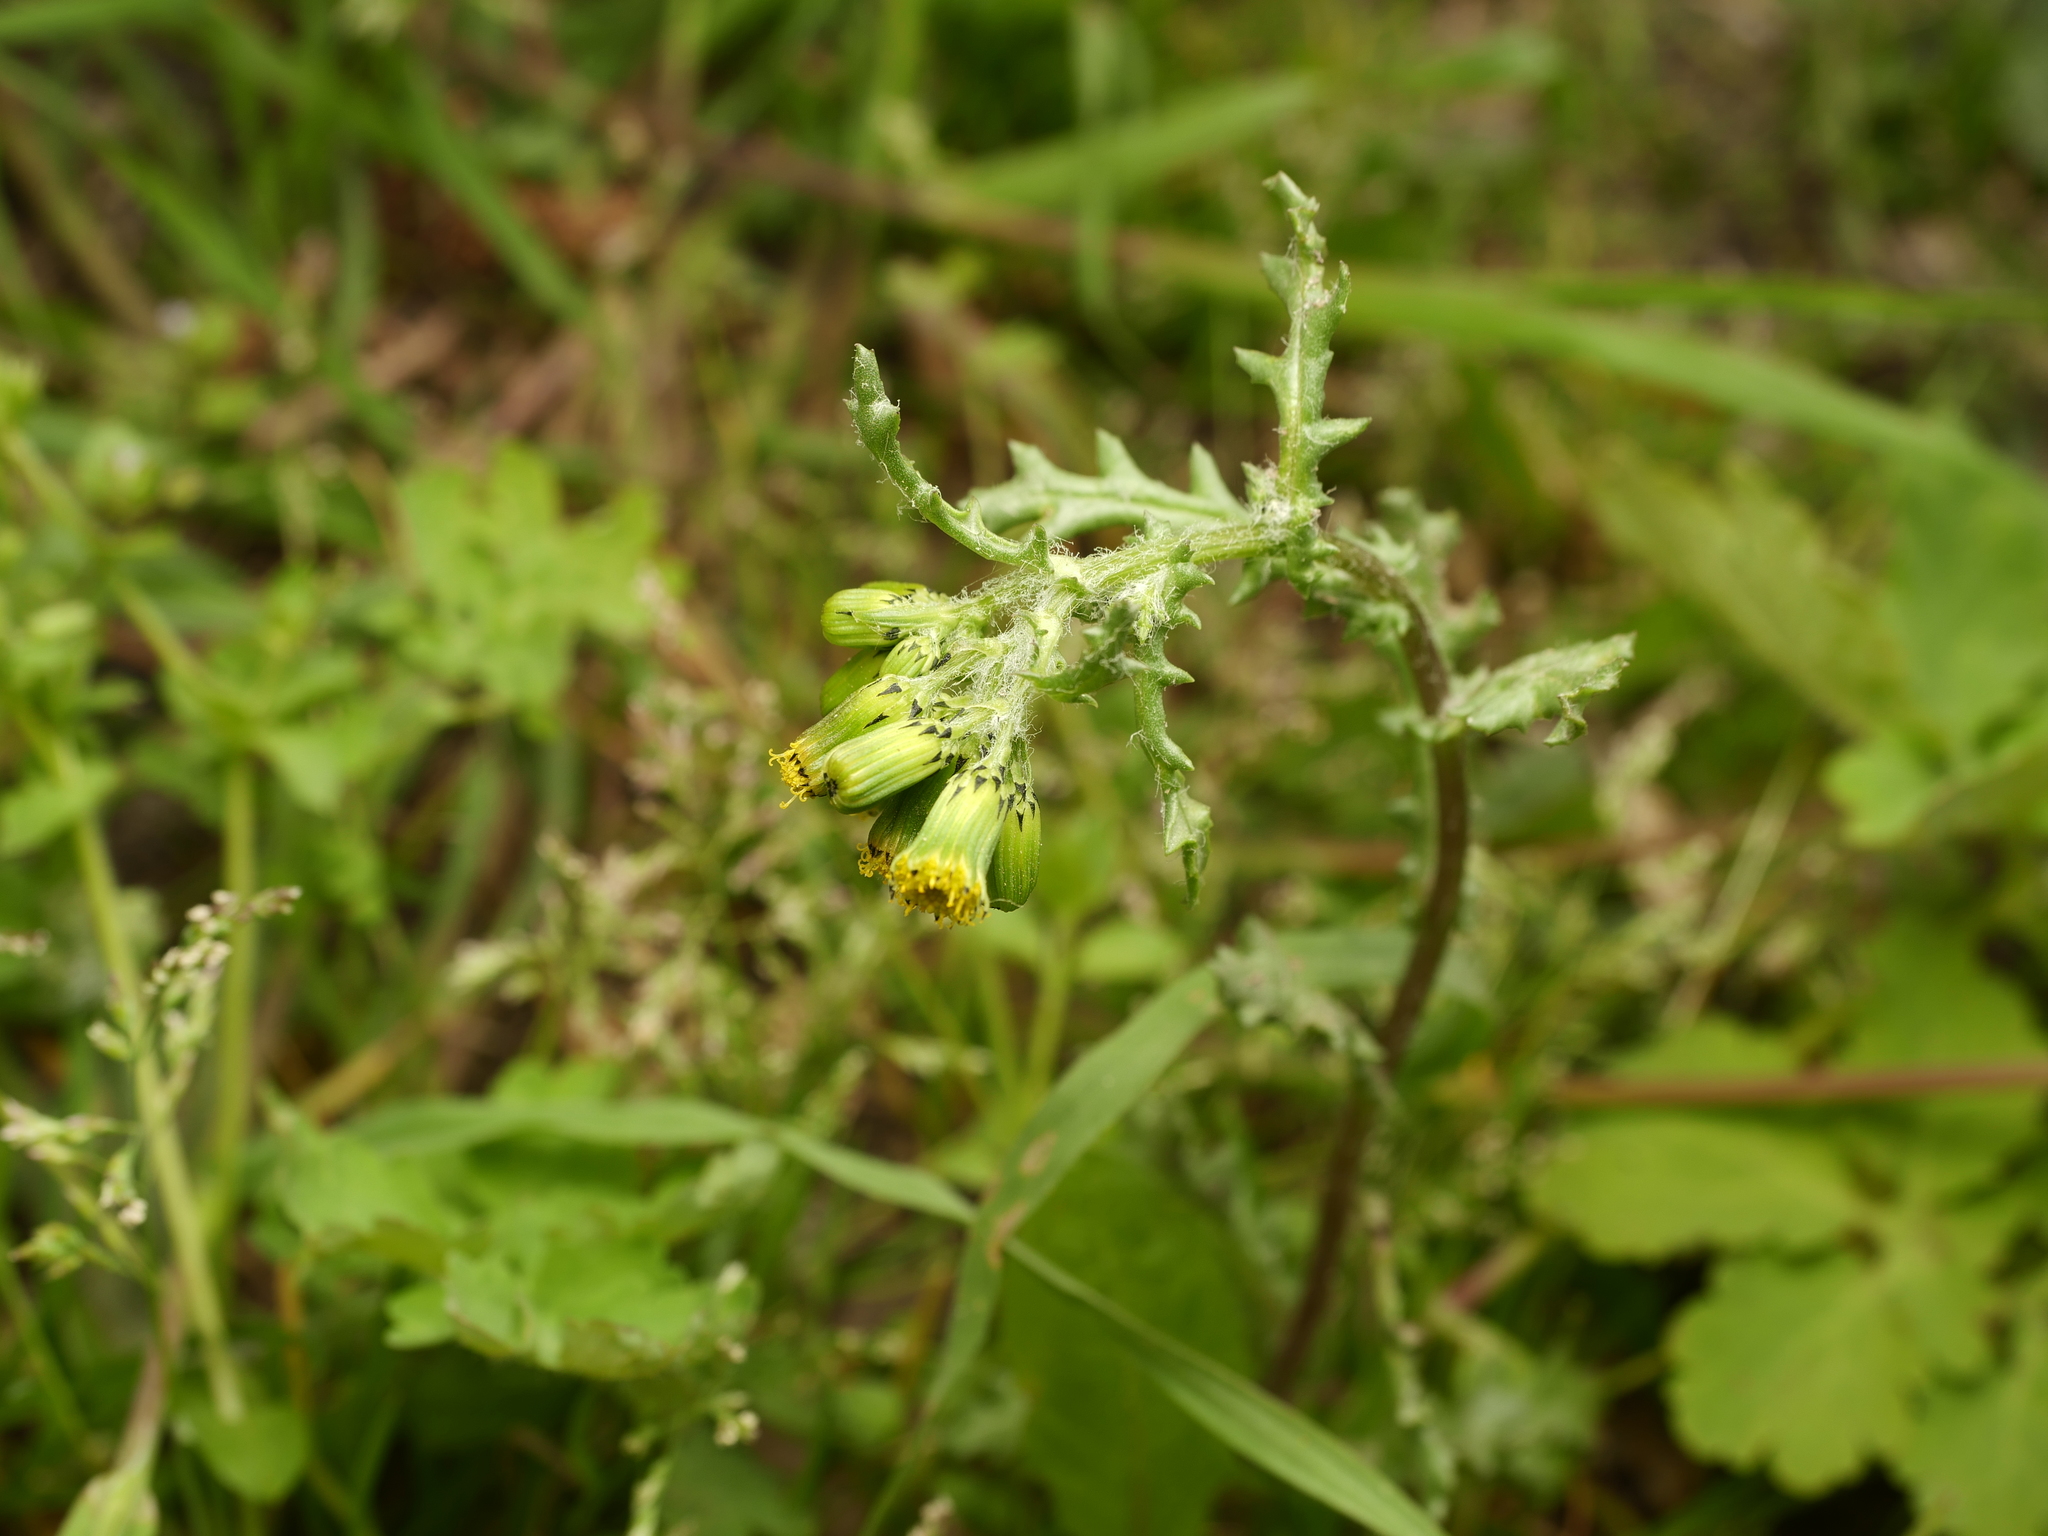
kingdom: Plantae
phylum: Tracheophyta
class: Magnoliopsida
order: Asterales
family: Asteraceae
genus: Senecio
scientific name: Senecio vulgaris
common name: Old-man-in-the-spring
